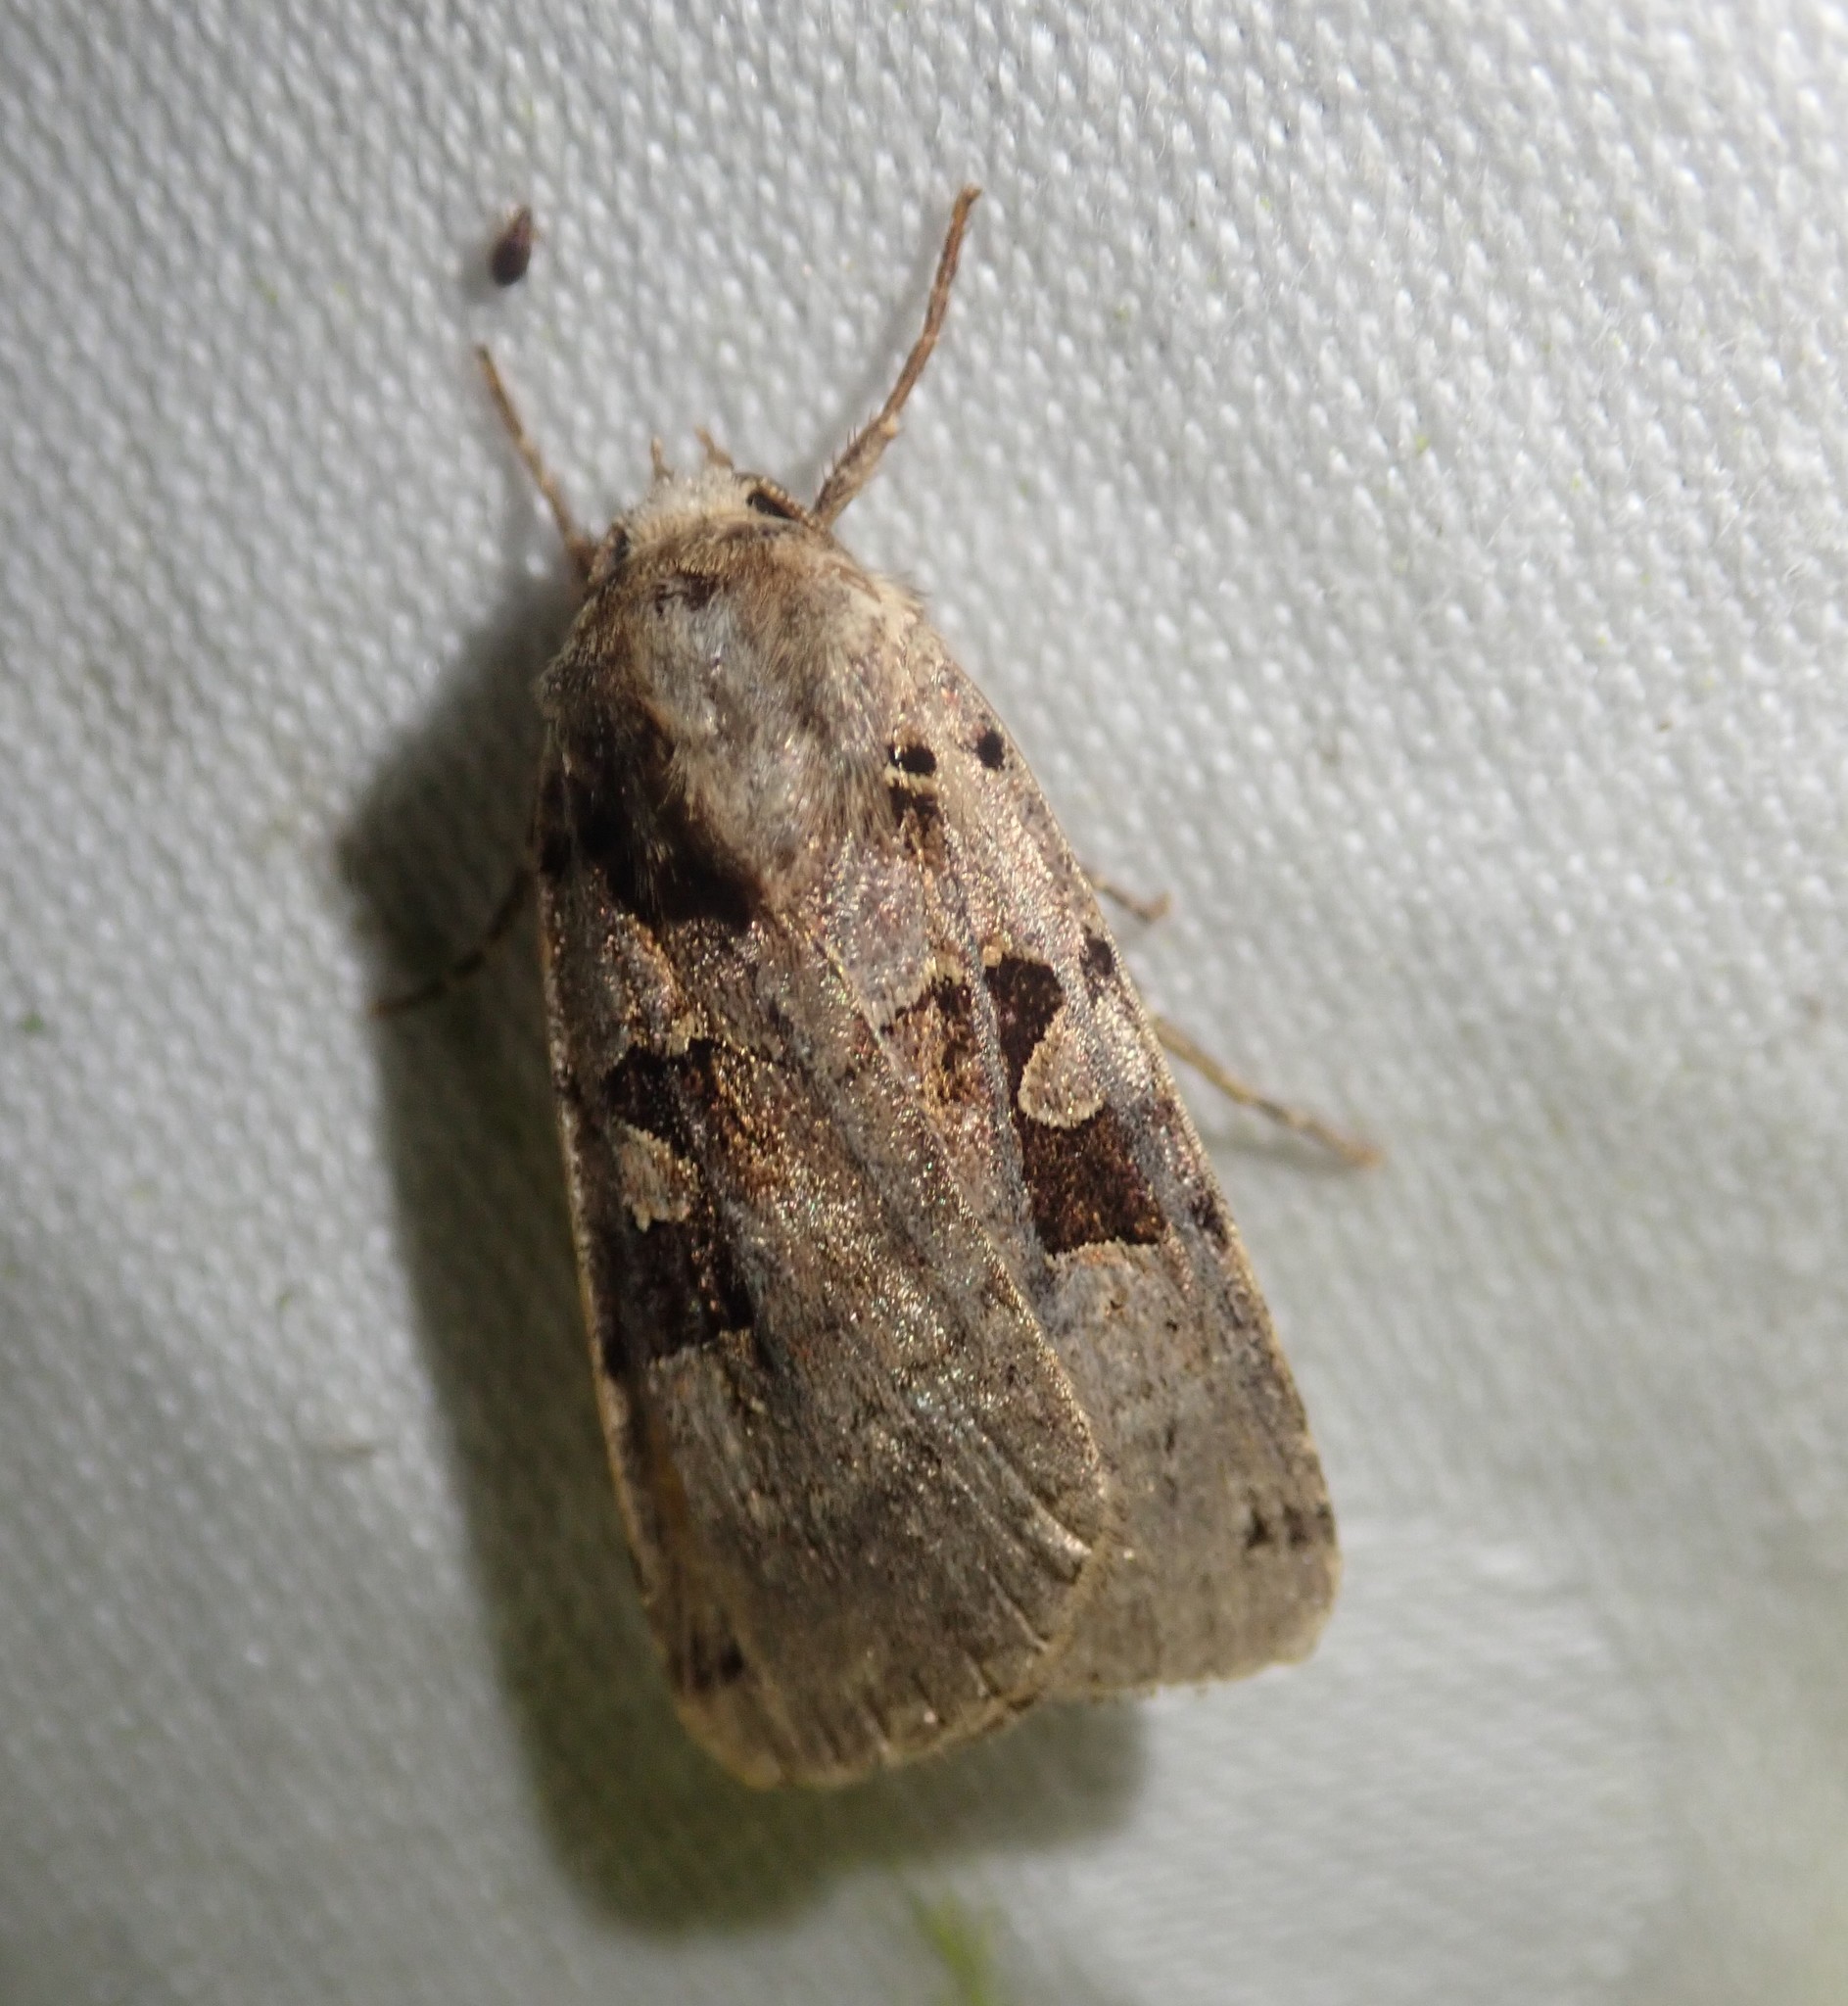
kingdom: Animalia
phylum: Arthropoda
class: Insecta
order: Lepidoptera
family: Noctuidae
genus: Xestia
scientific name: Xestia triangulum
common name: Double square-spot
